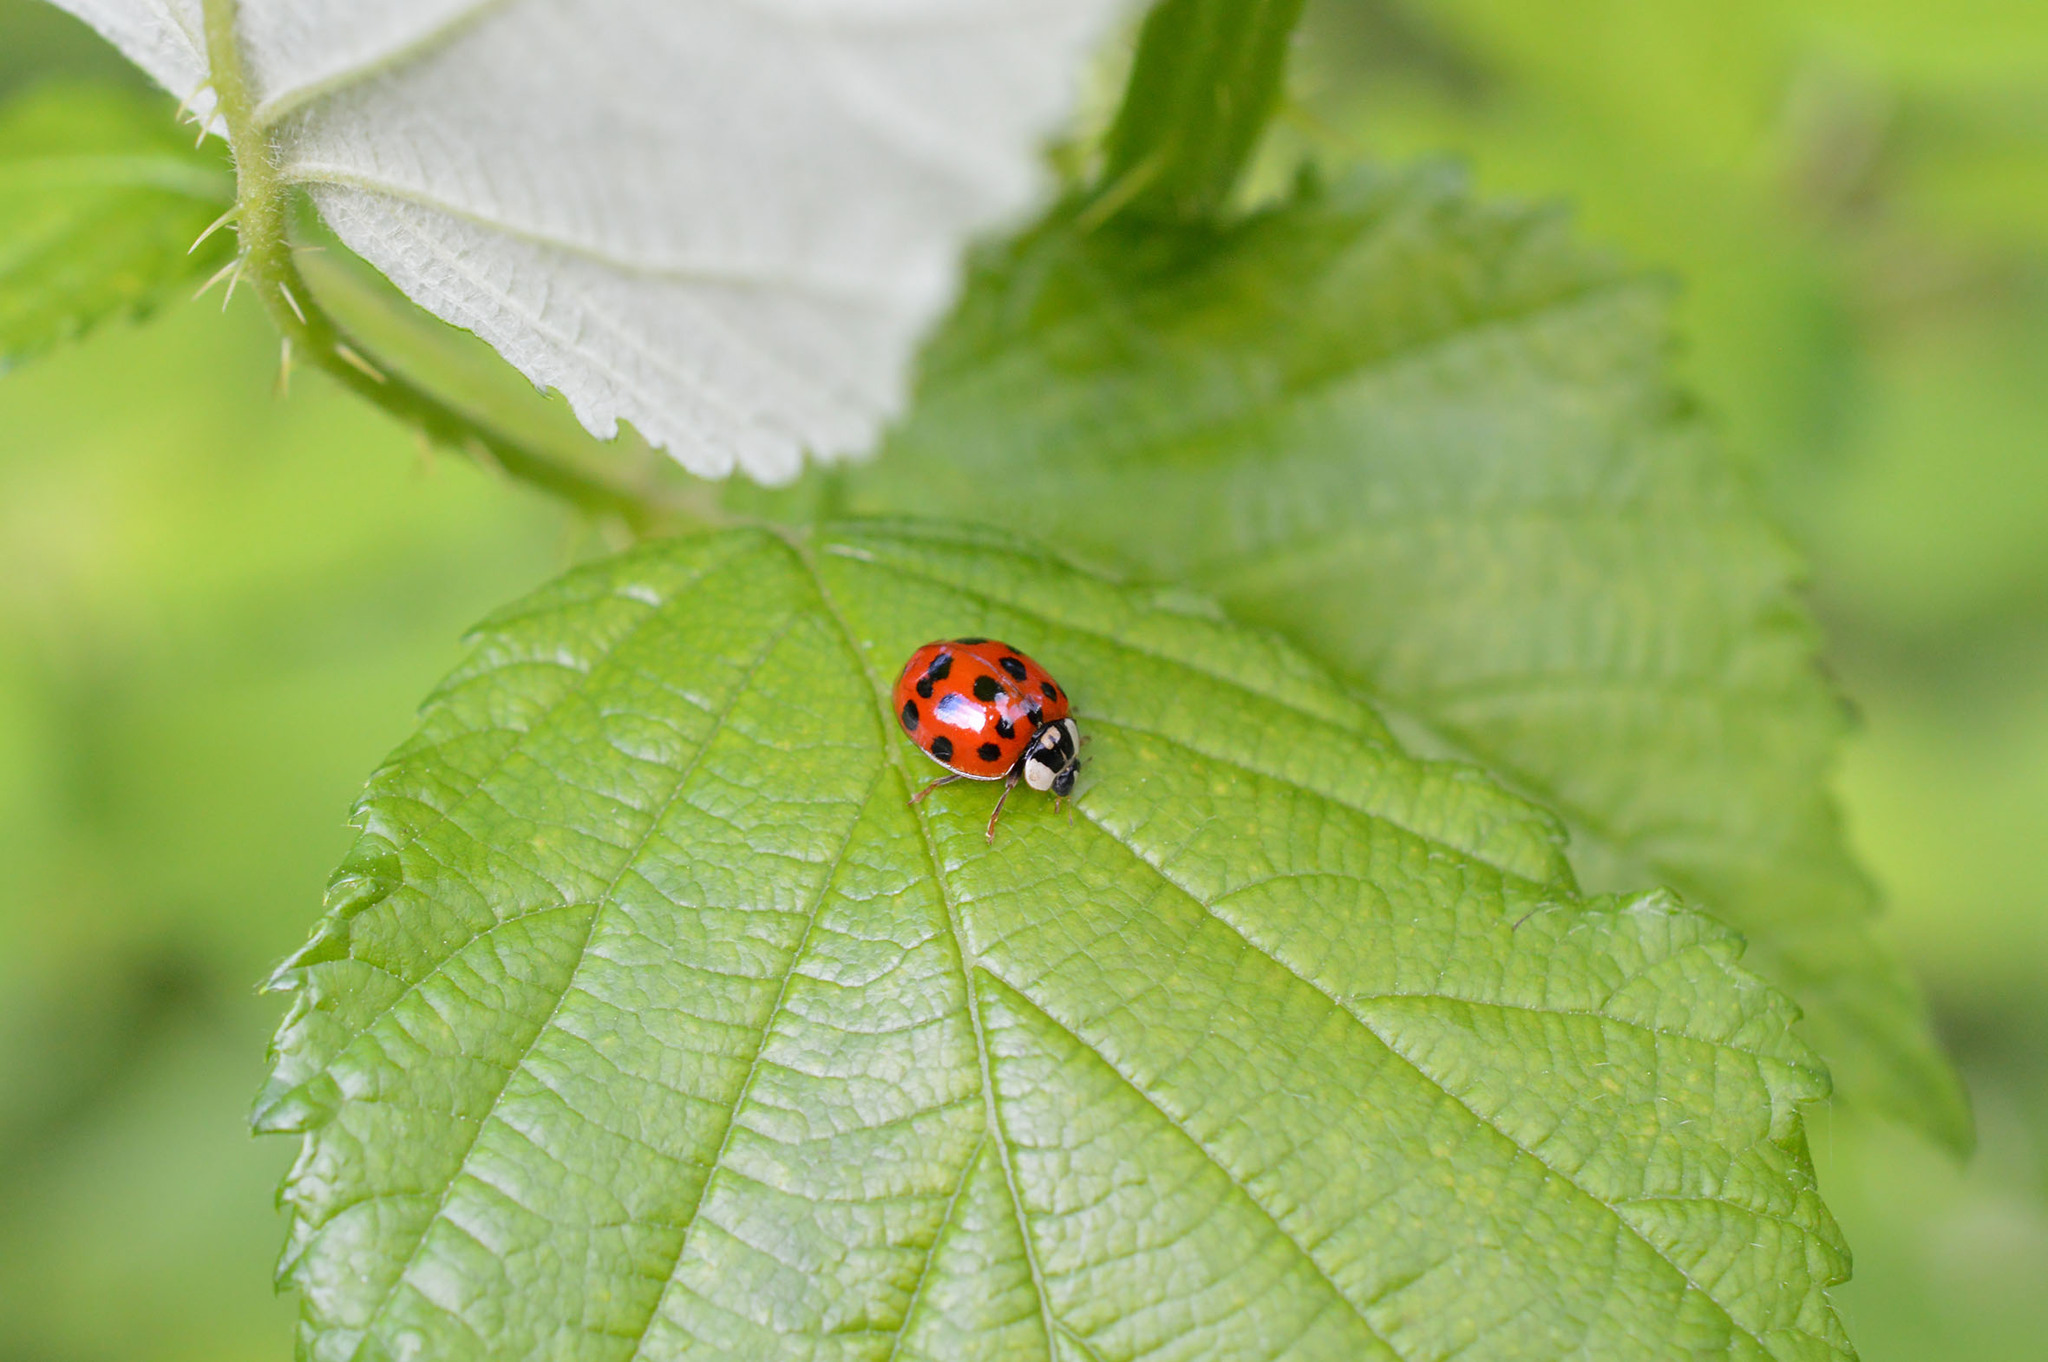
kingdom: Animalia
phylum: Arthropoda
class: Insecta
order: Coleoptera
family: Coccinellidae
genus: Harmonia
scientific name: Harmonia axyridis
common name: Harlequin ladybird
